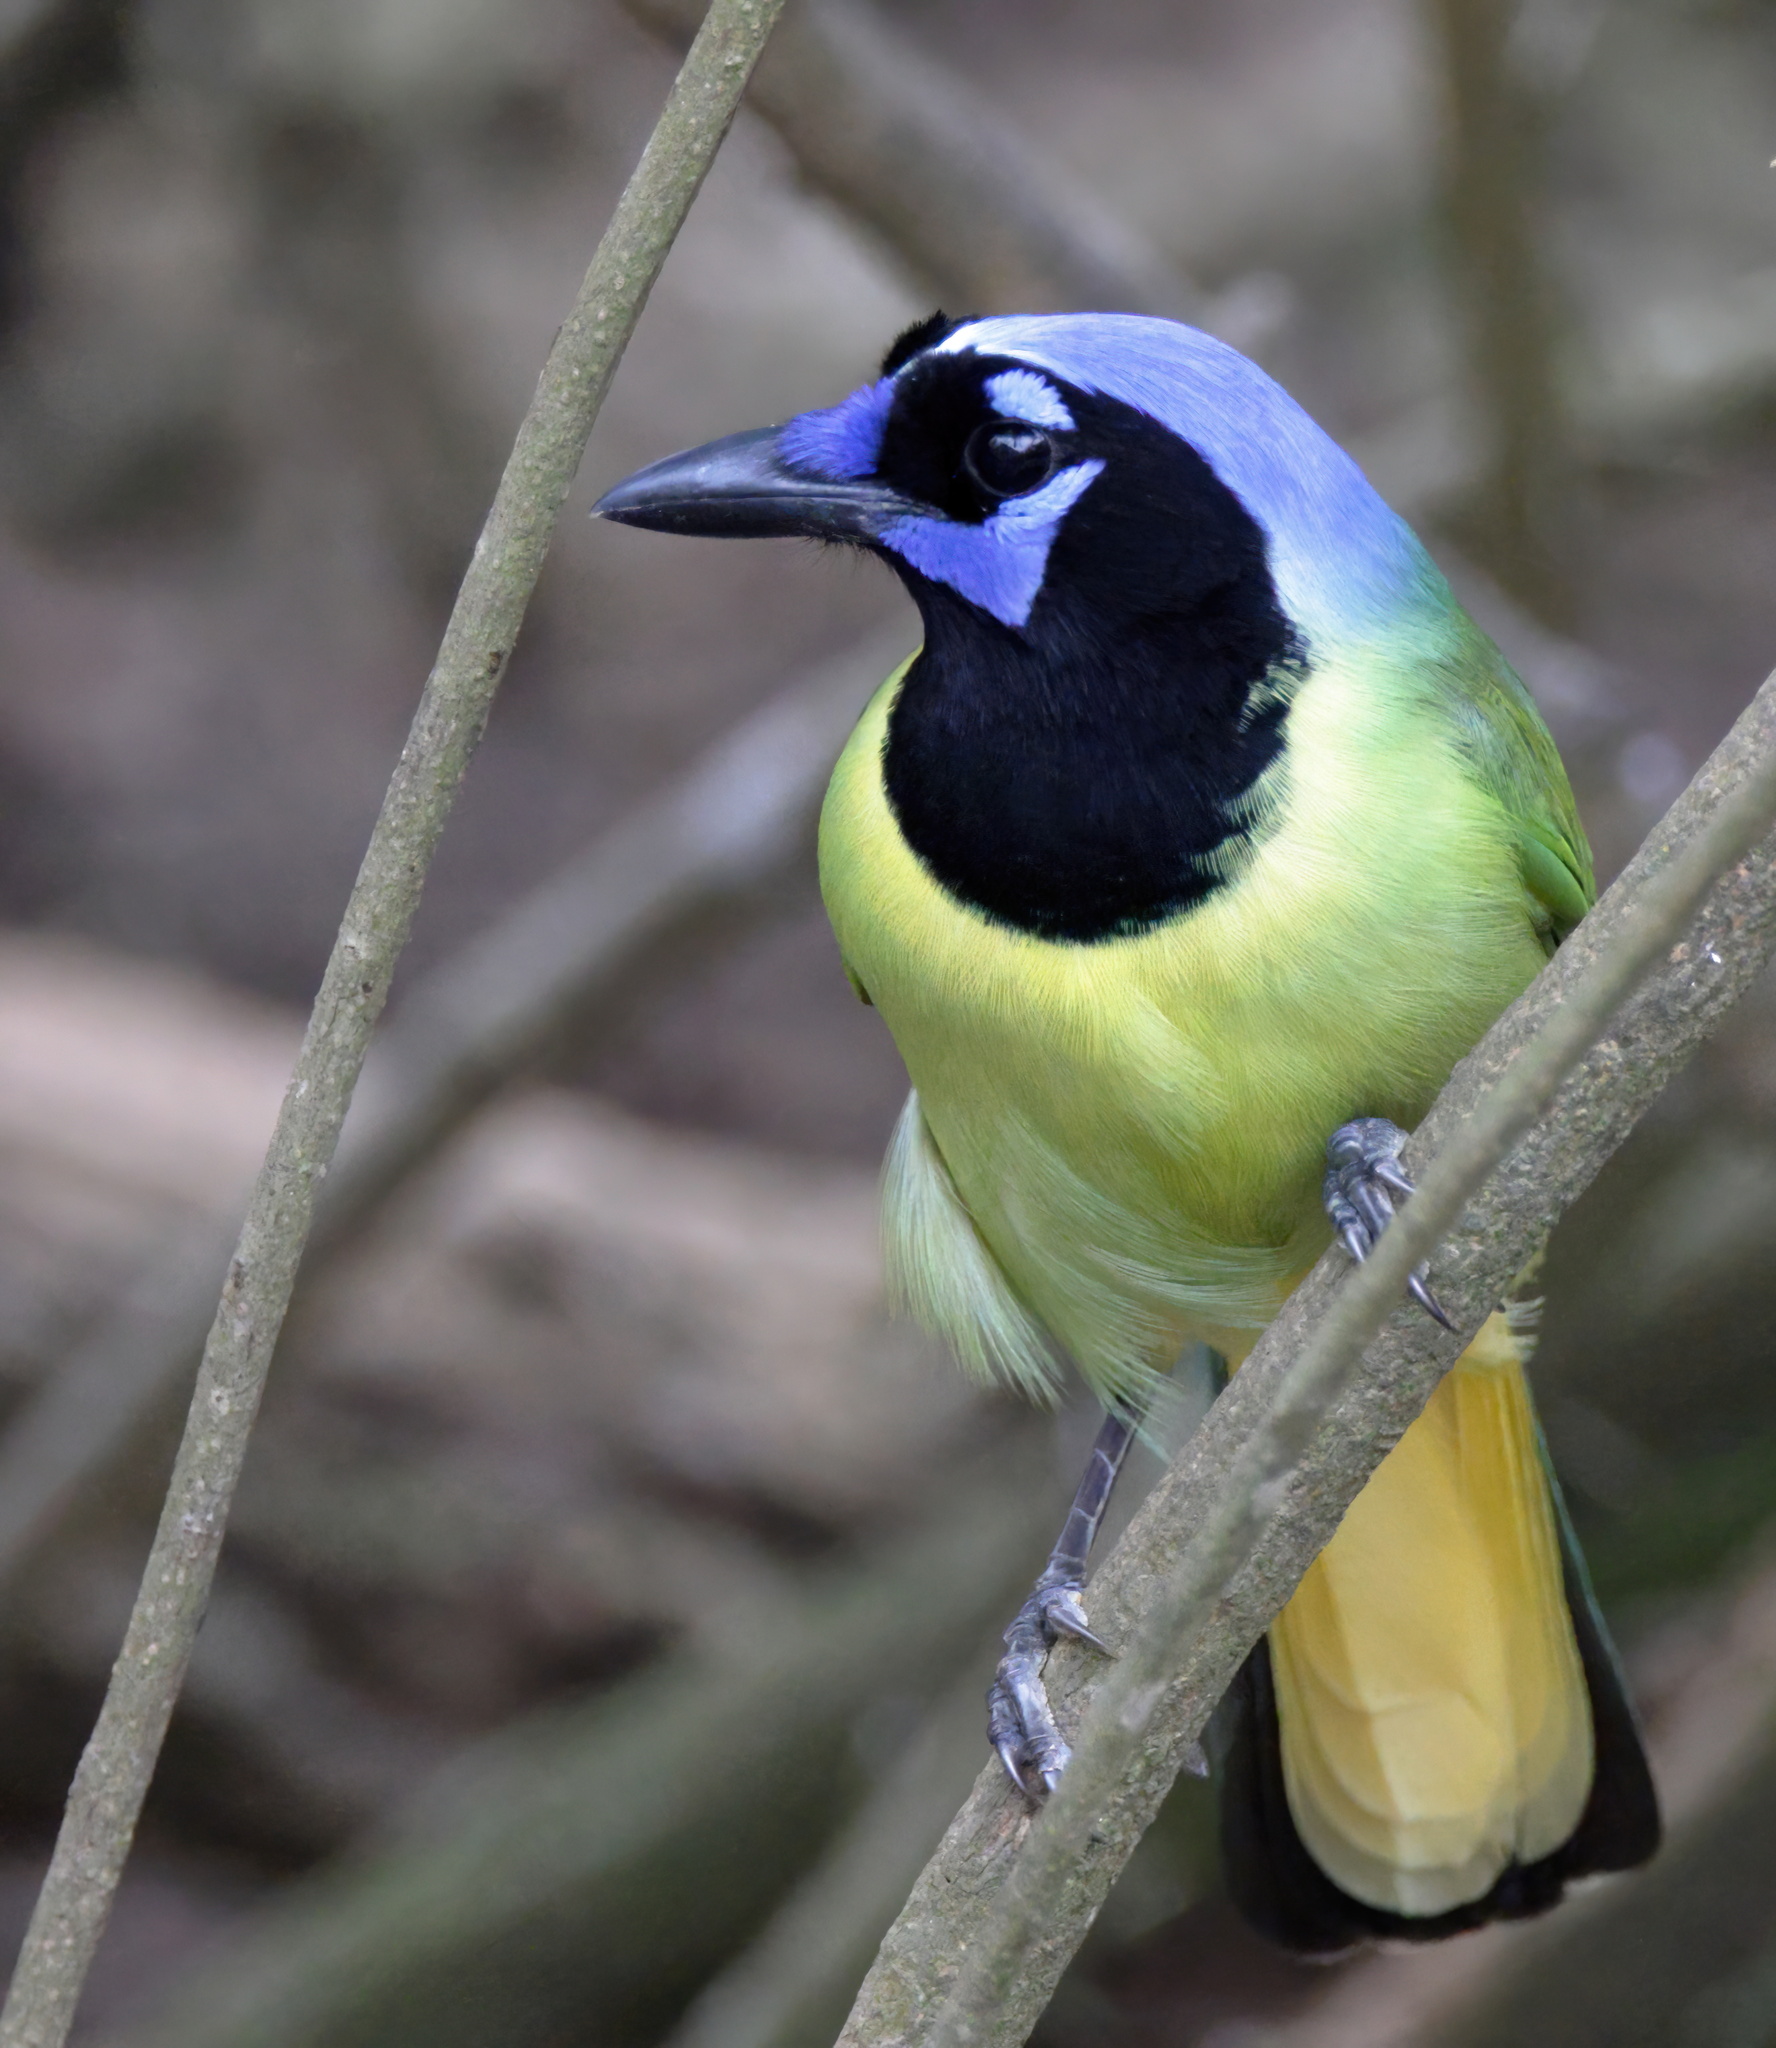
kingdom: Animalia
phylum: Chordata
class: Aves
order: Passeriformes
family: Corvidae
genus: Cyanocorax
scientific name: Cyanocorax yncas
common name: Green jay
